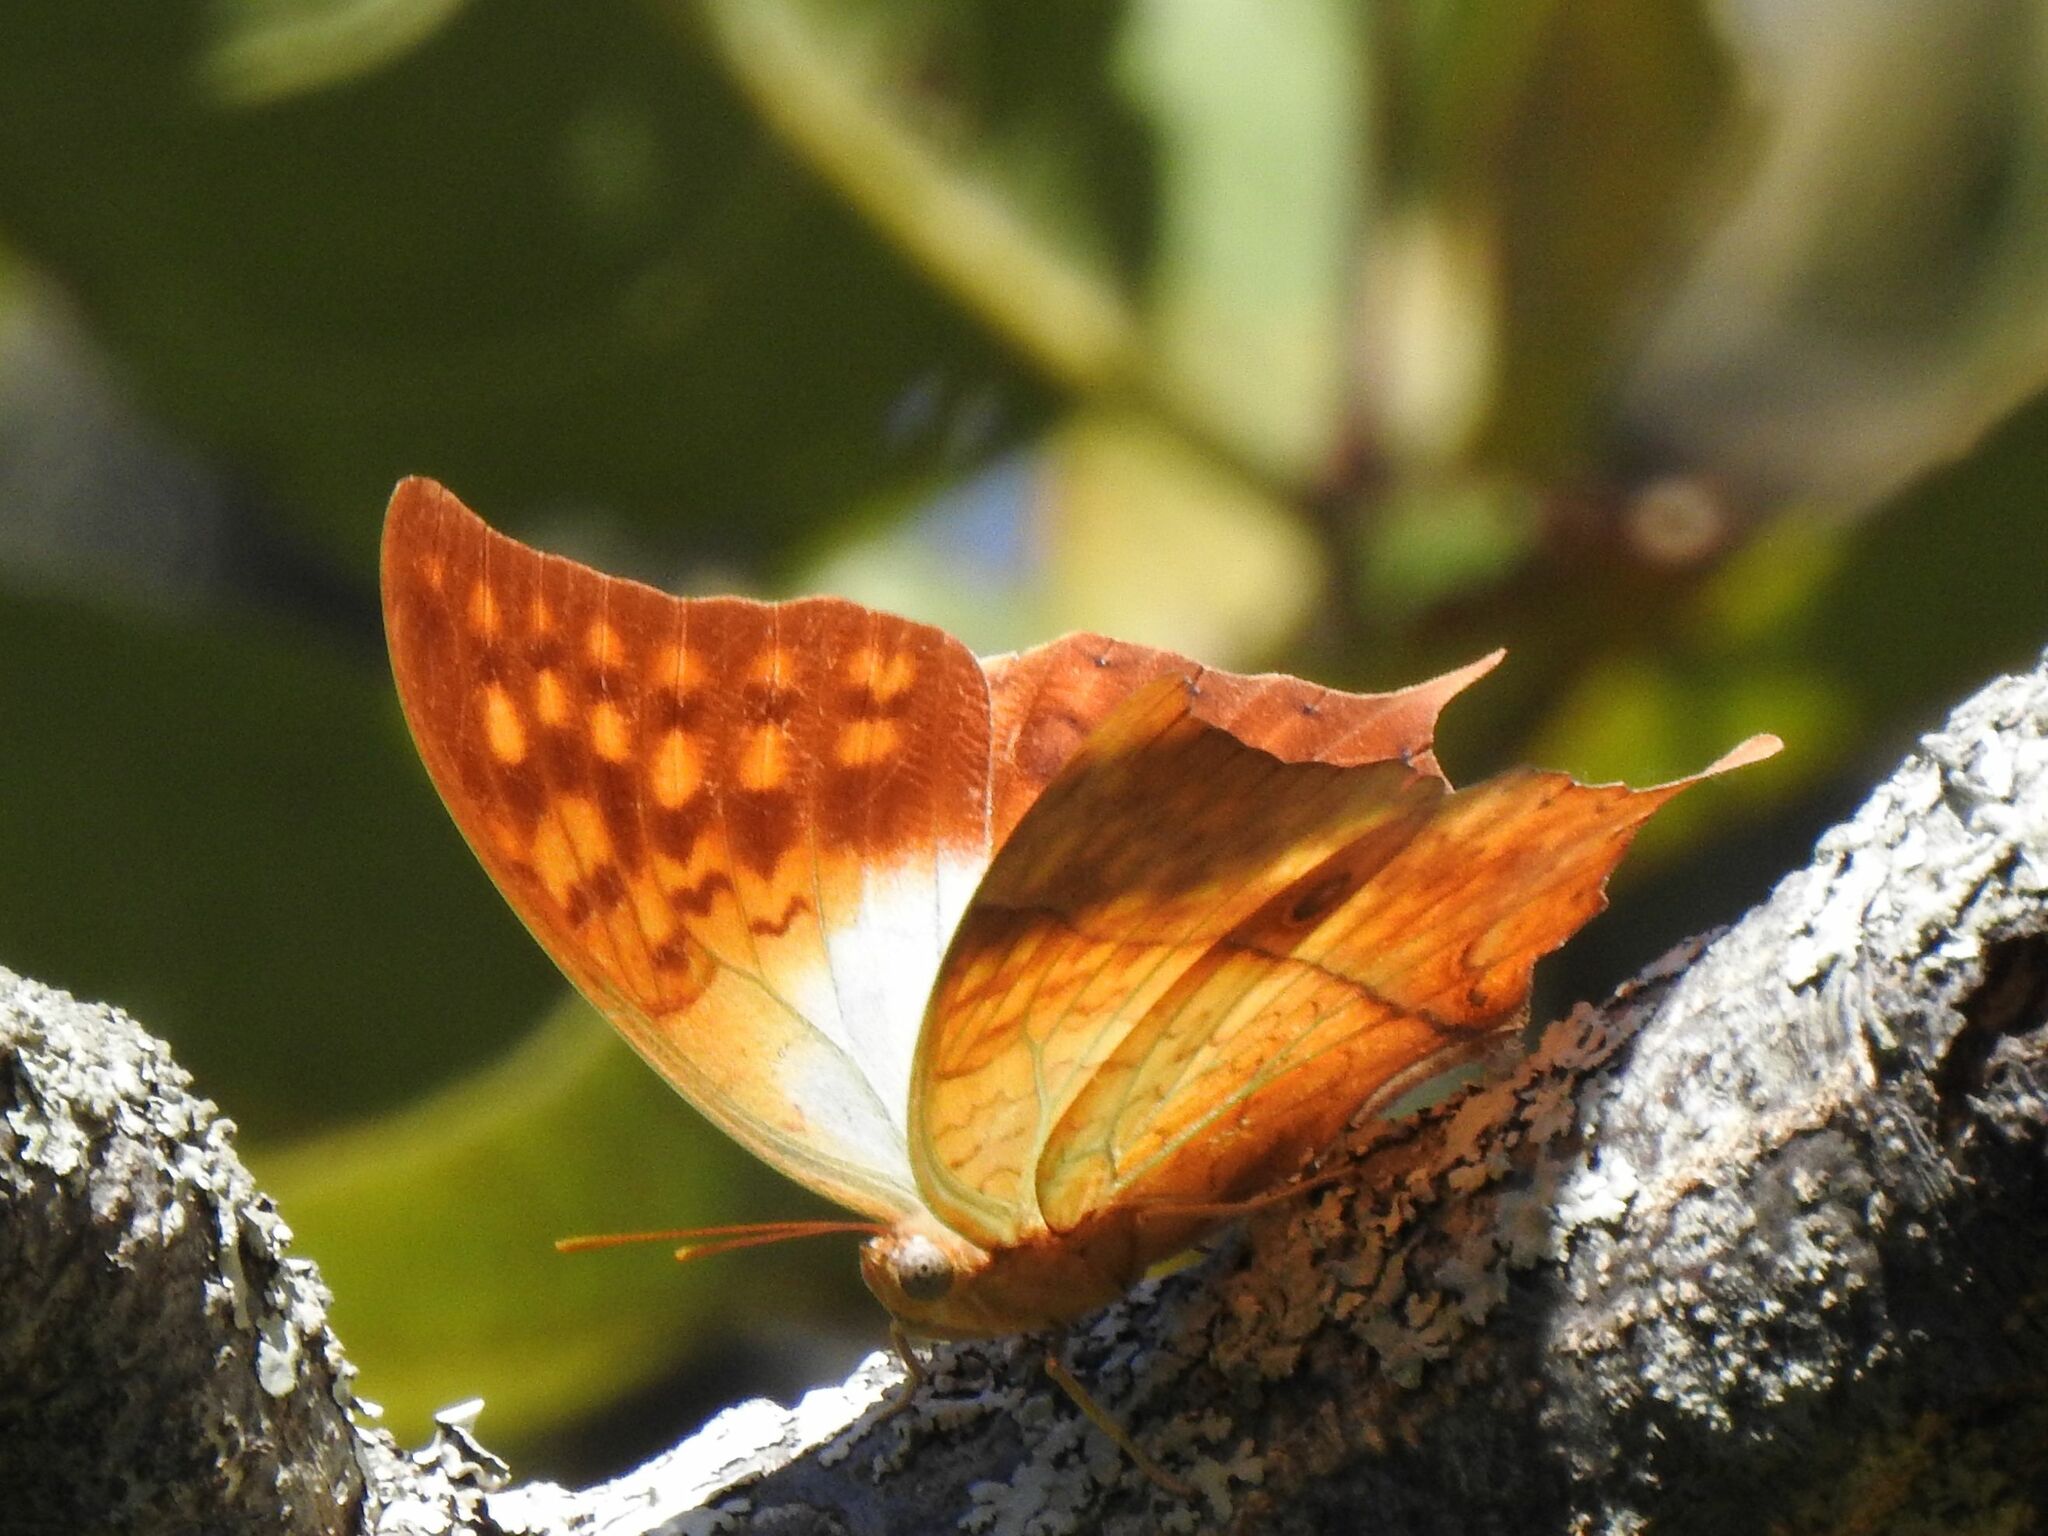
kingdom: Animalia
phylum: Arthropoda
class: Insecta
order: Lepidoptera
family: Nymphalidae
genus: Charaxes
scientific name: Charaxes varanes
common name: Common pearl charaxes
